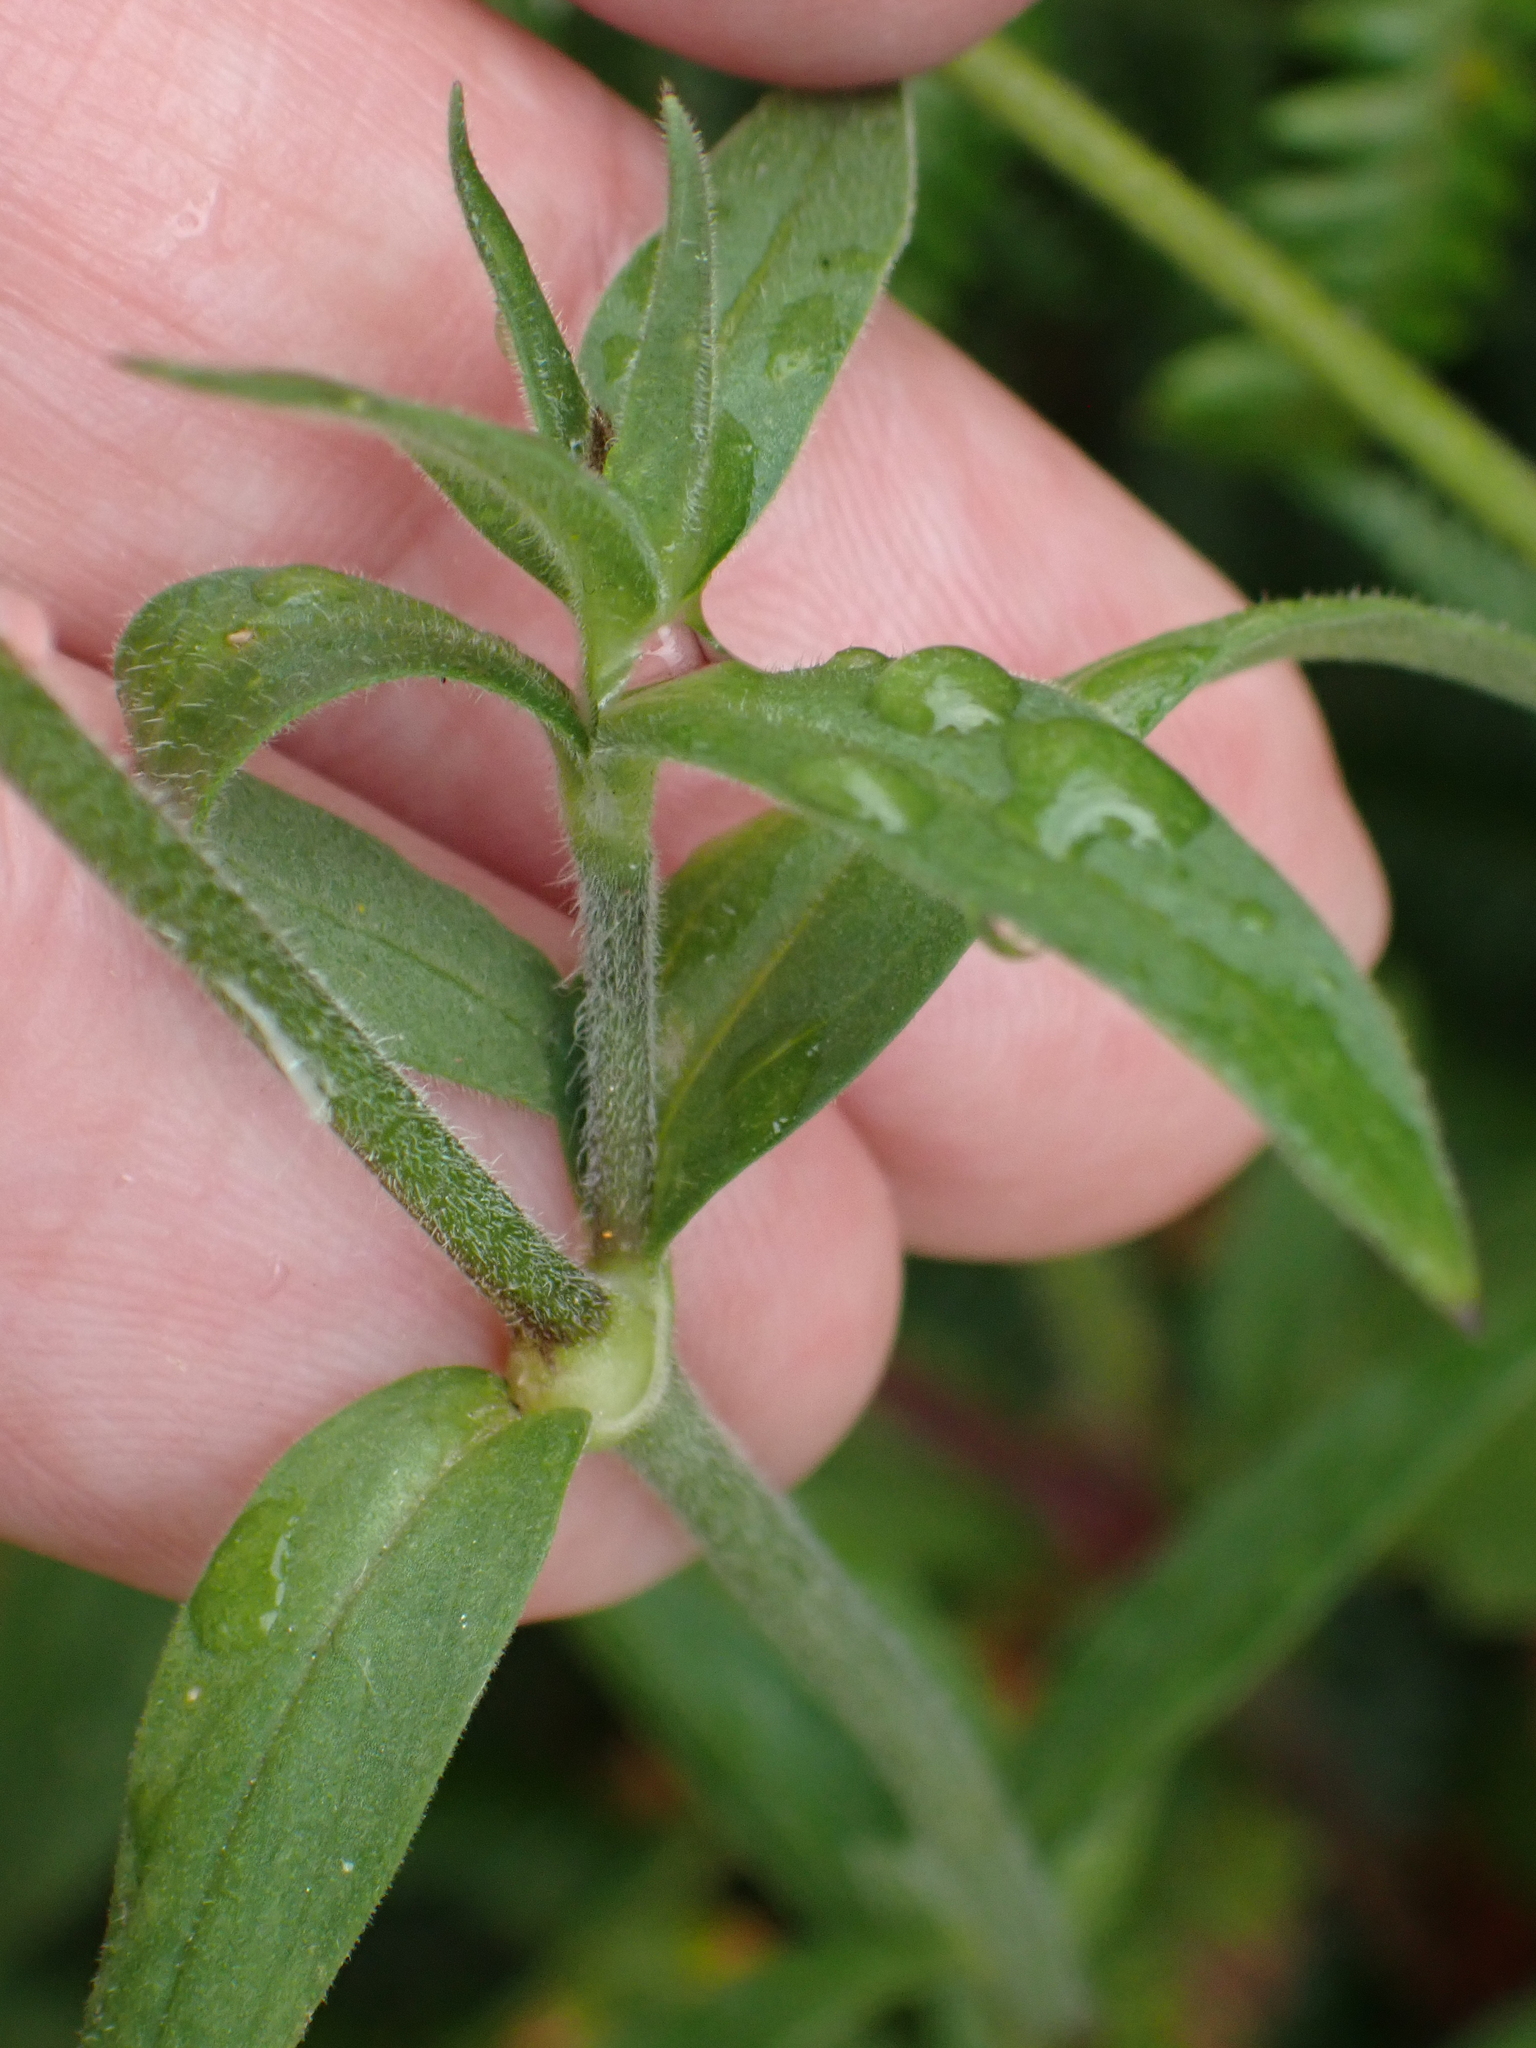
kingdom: Plantae
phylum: Tracheophyta
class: Magnoliopsida
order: Caryophyllales
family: Caryophyllaceae
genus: Silene
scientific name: Silene latifolia
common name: White campion
